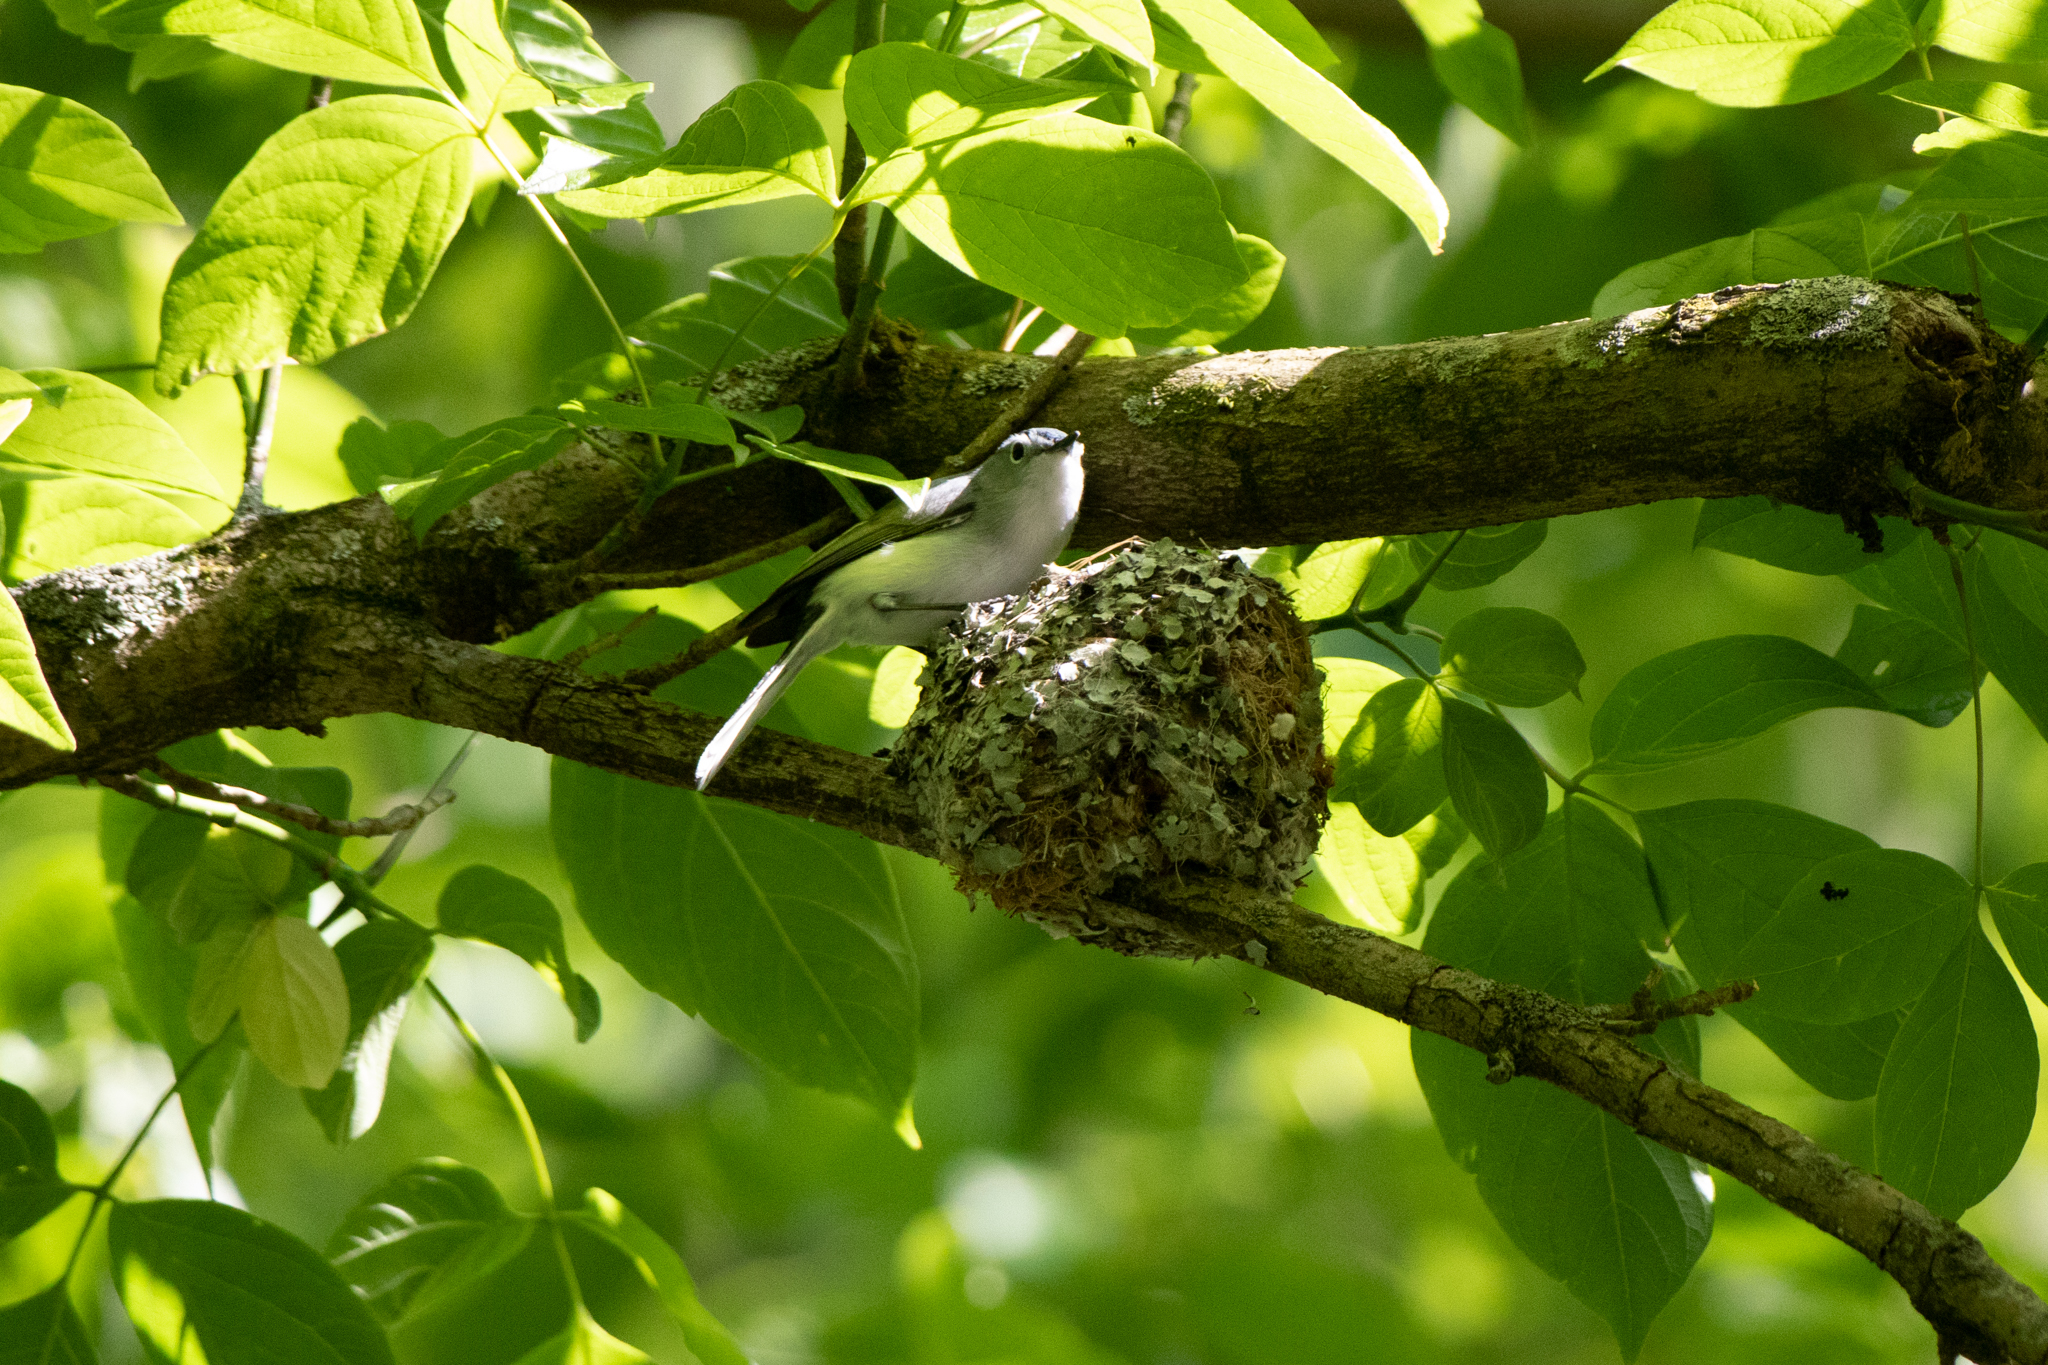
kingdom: Animalia
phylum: Chordata
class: Aves
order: Passeriformes
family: Polioptilidae
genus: Polioptila
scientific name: Polioptila caerulea
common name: Blue-gray gnatcatcher
